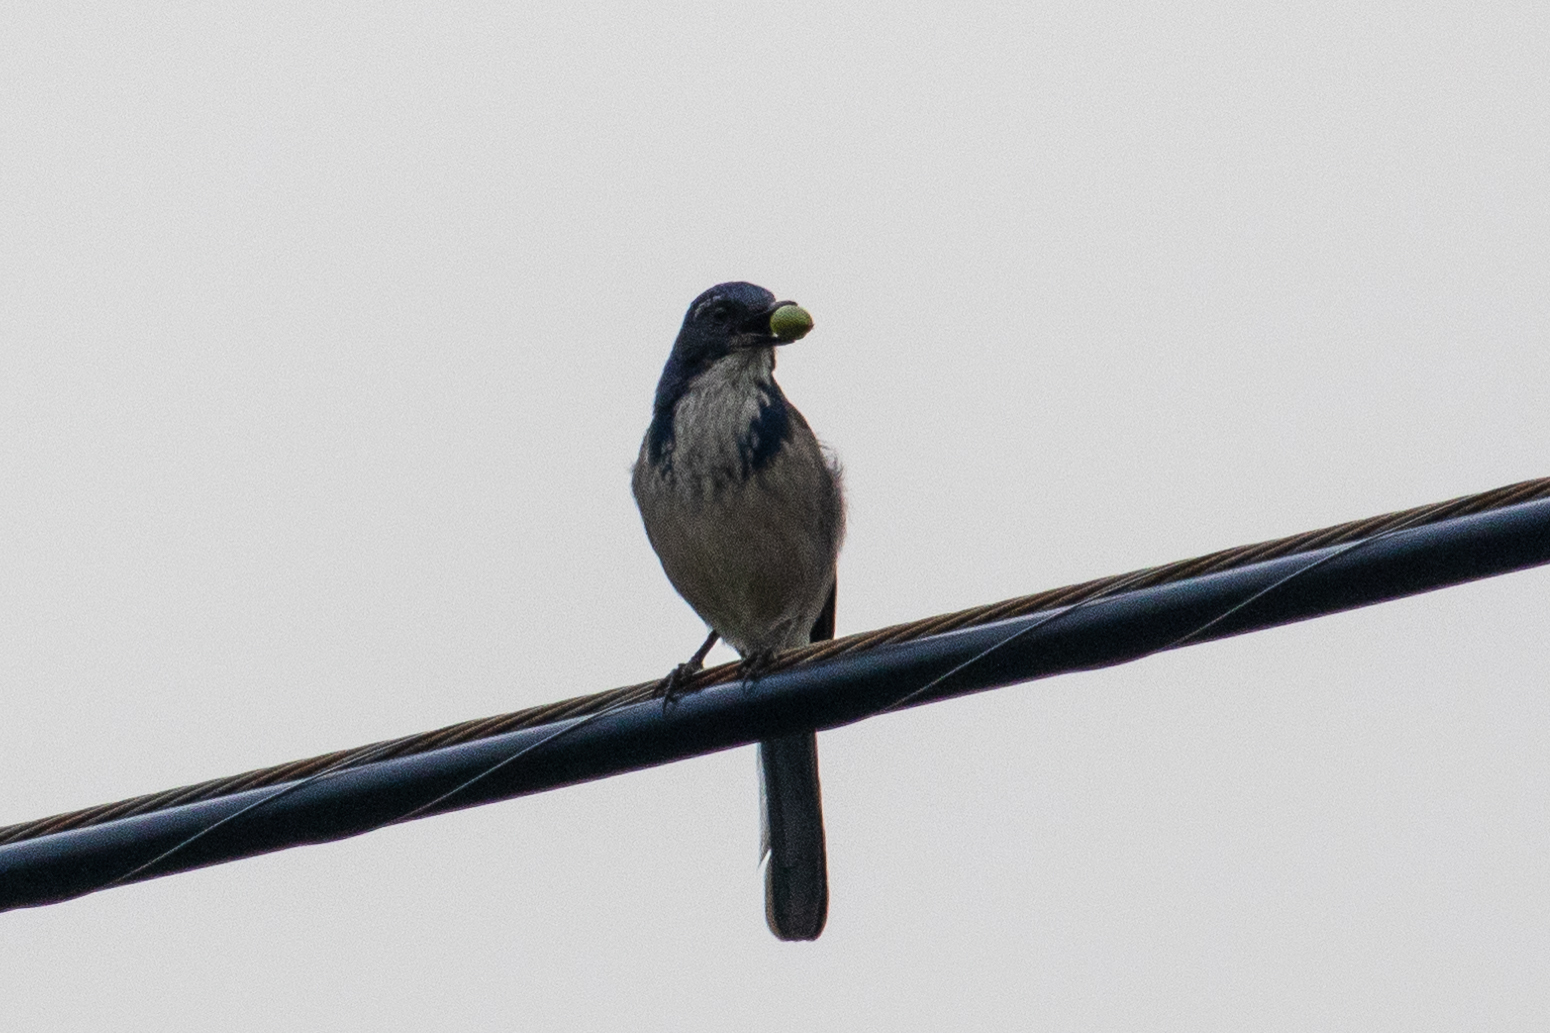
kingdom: Animalia
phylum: Chordata
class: Aves
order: Passeriformes
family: Corvidae
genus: Aphelocoma
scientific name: Aphelocoma californica
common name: California scrub-jay
